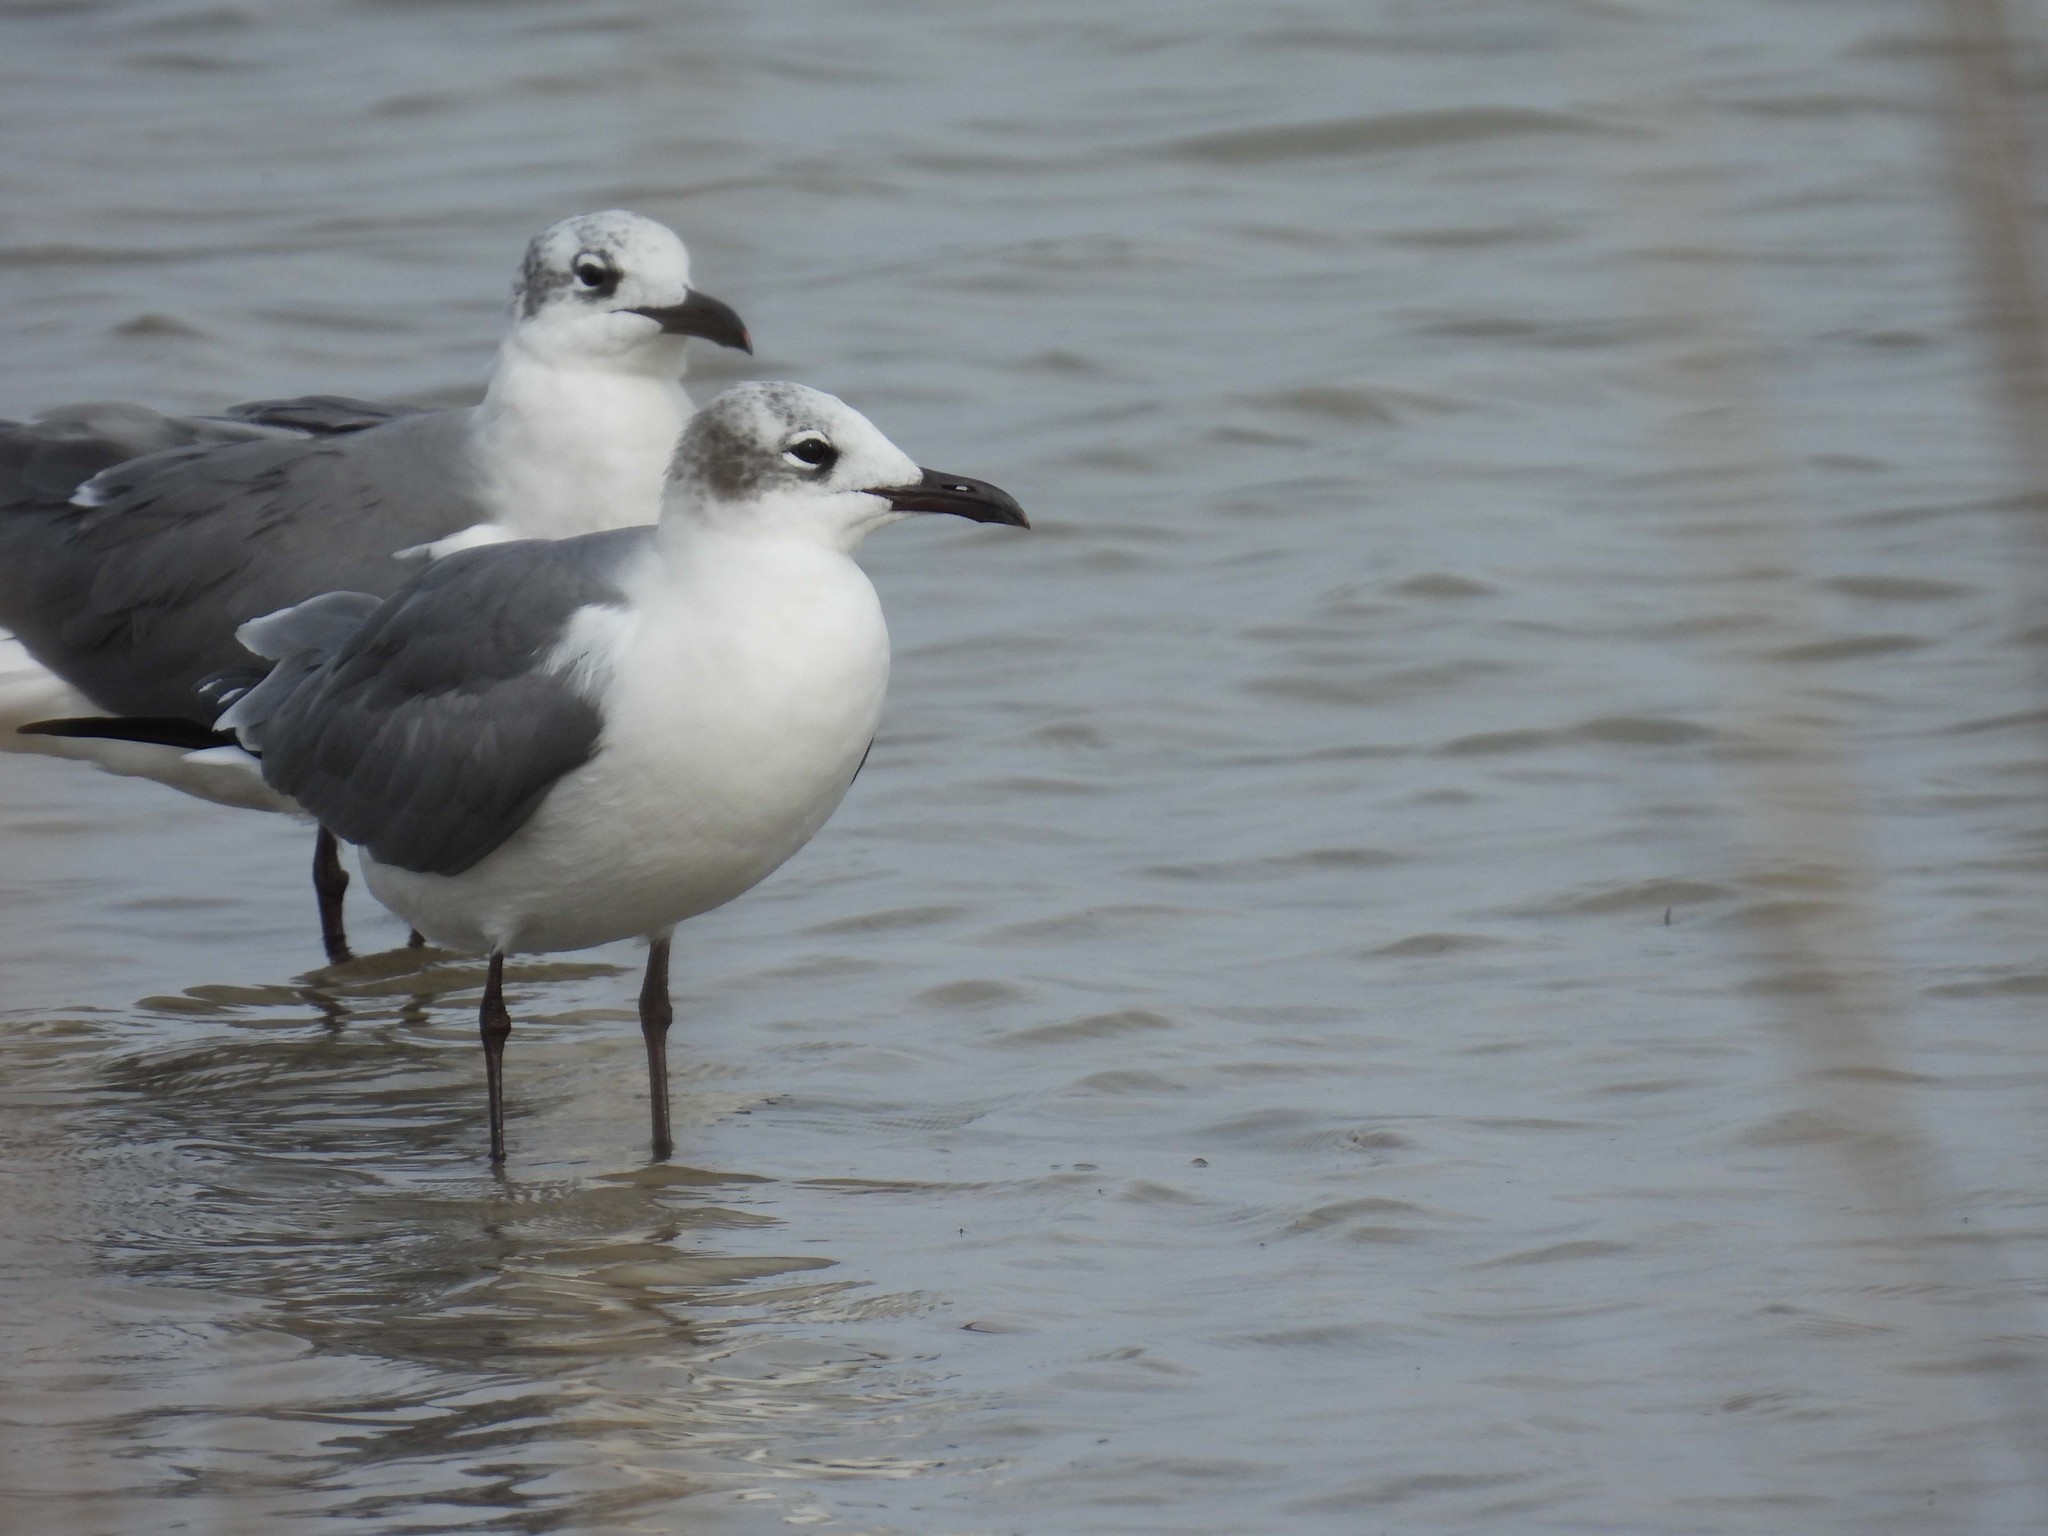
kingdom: Animalia
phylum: Chordata
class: Aves
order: Charadriiformes
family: Laridae
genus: Leucophaeus
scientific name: Leucophaeus atricilla
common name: Laughing gull
